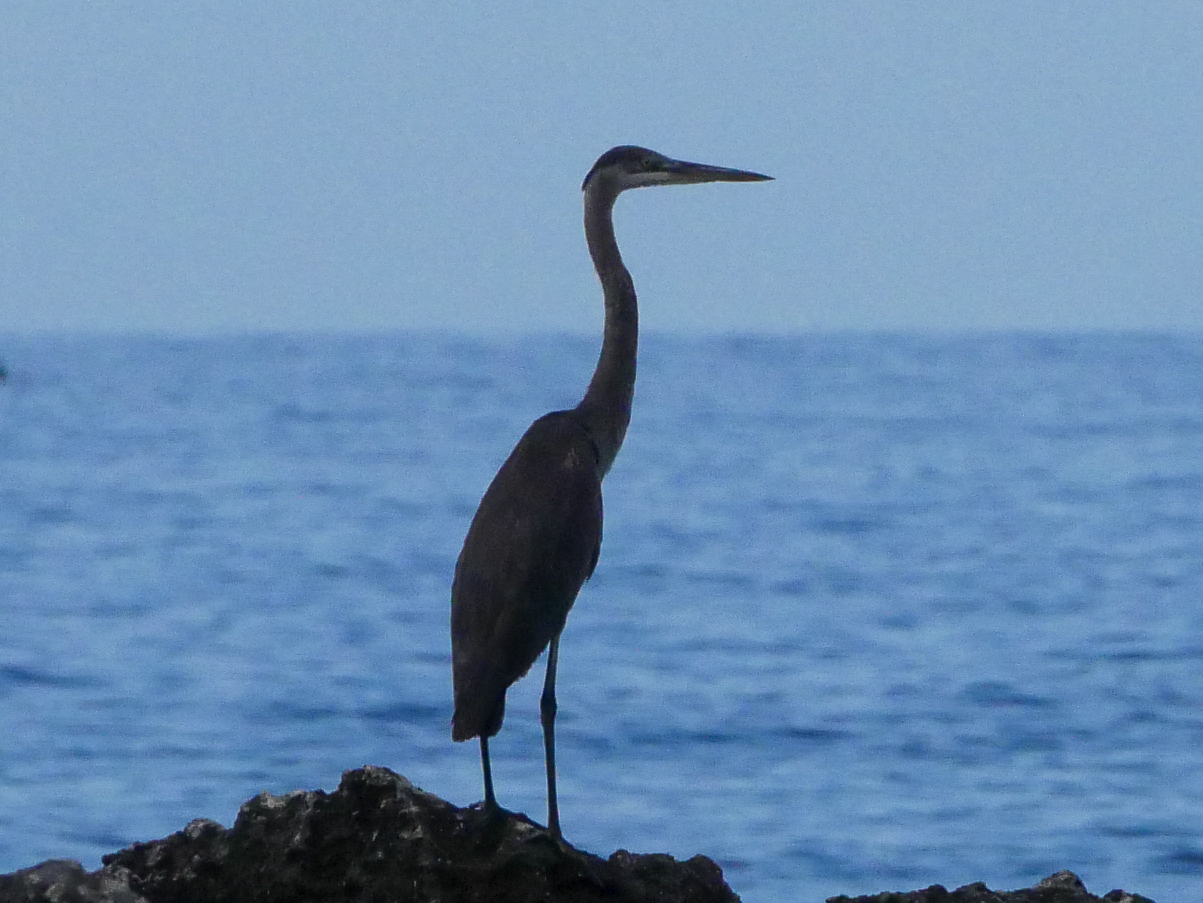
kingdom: Animalia
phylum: Chordata
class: Aves
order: Pelecaniformes
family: Ardeidae
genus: Ardea
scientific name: Ardea herodias
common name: Great blue heron
